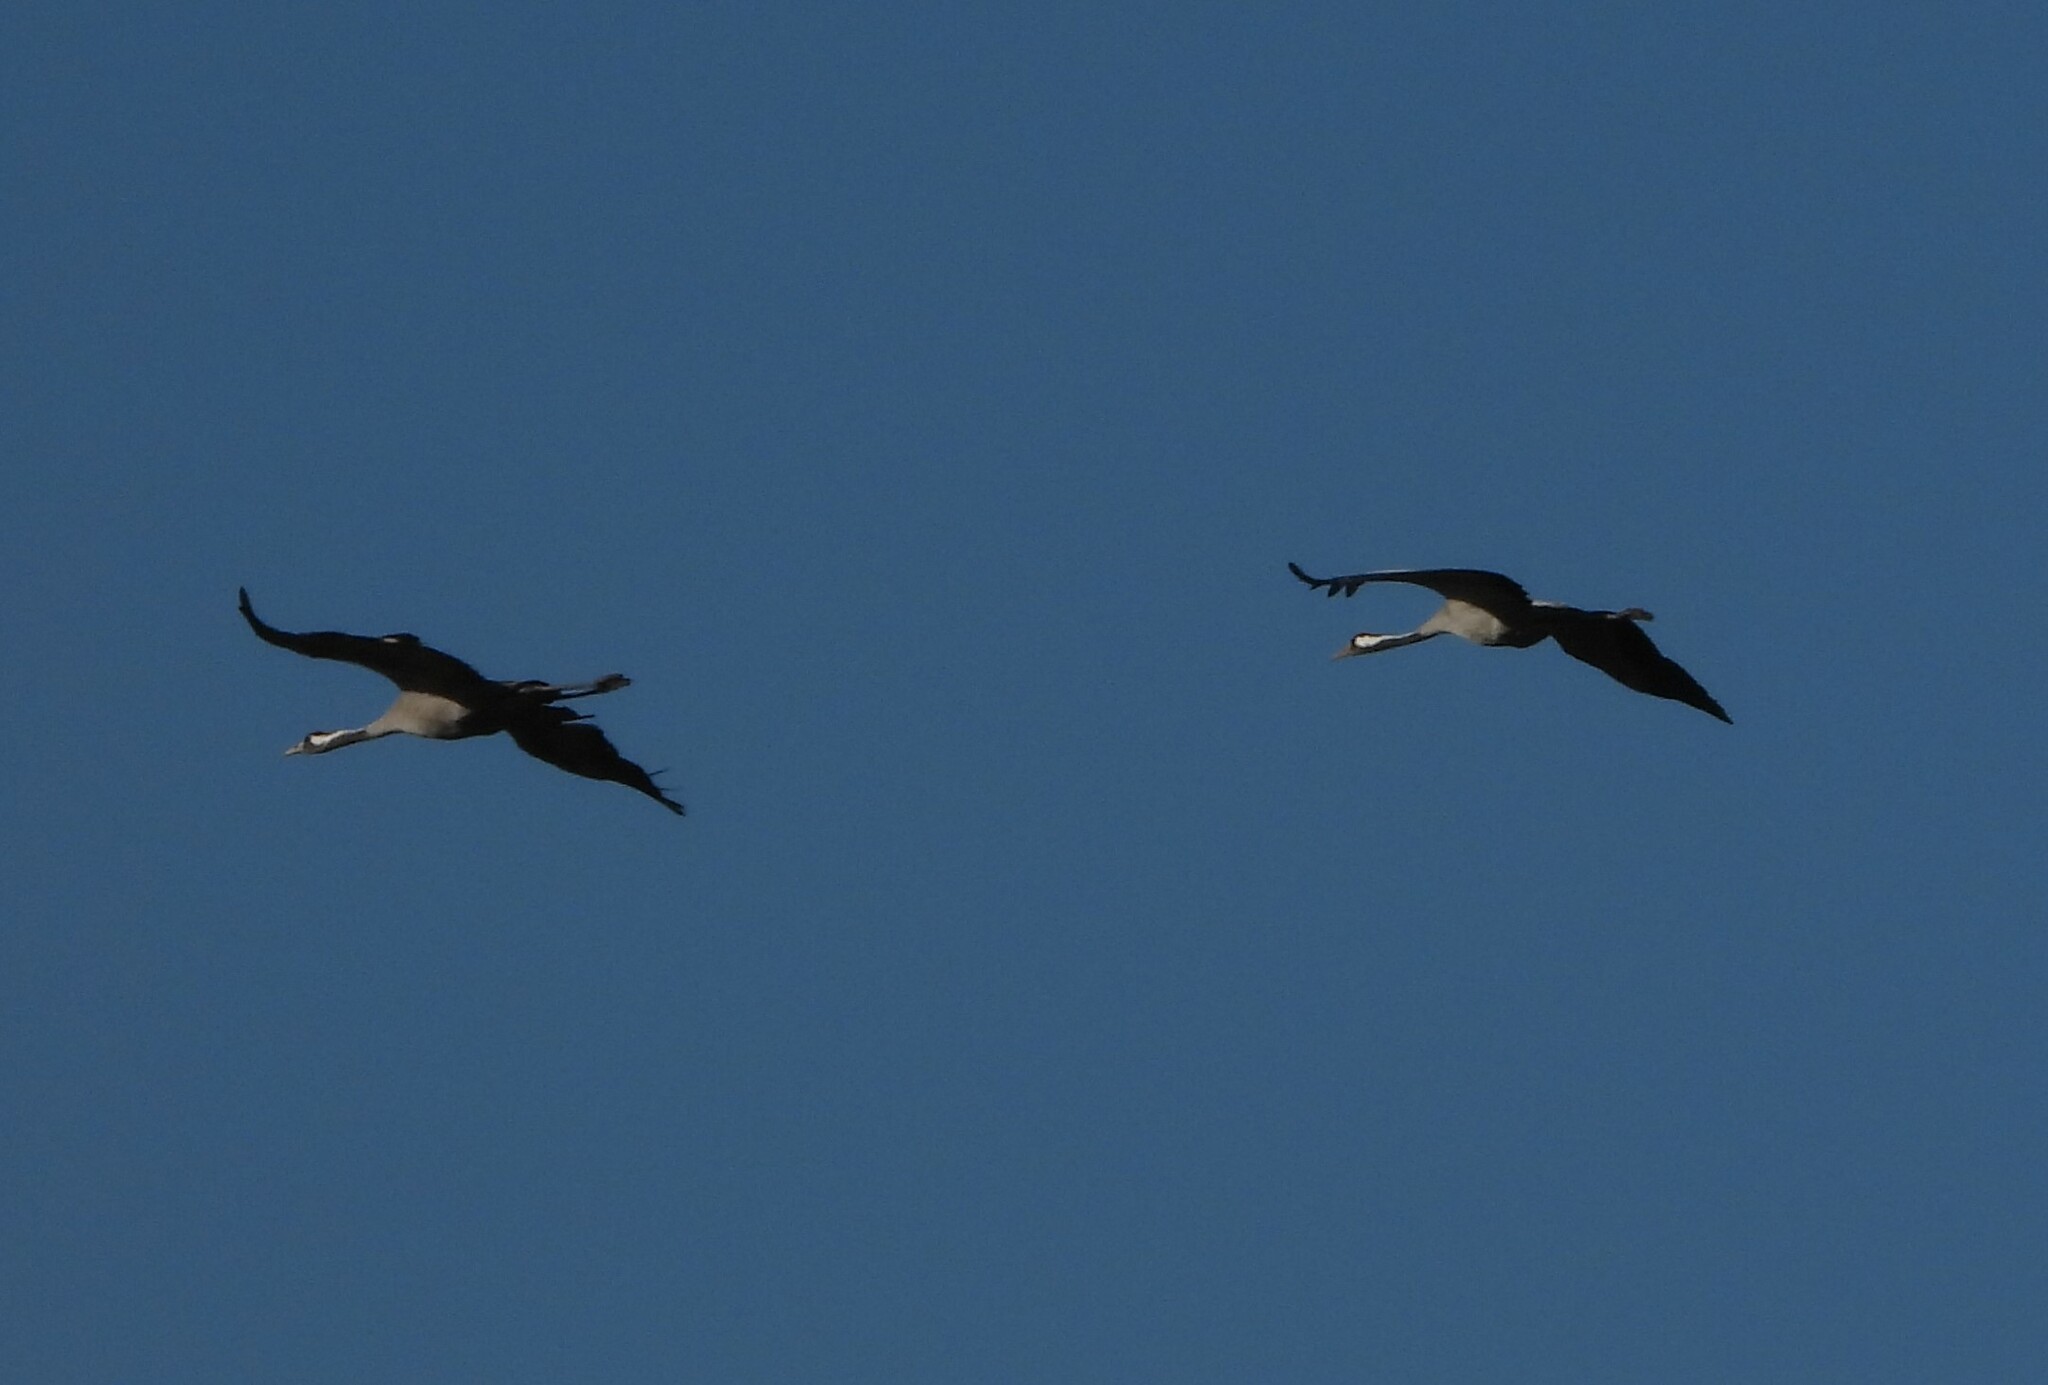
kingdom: Animalia
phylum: Chordata
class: Aves
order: Gruiformes
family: Gruidae
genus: Grus
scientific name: Grus grus
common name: Common crane
